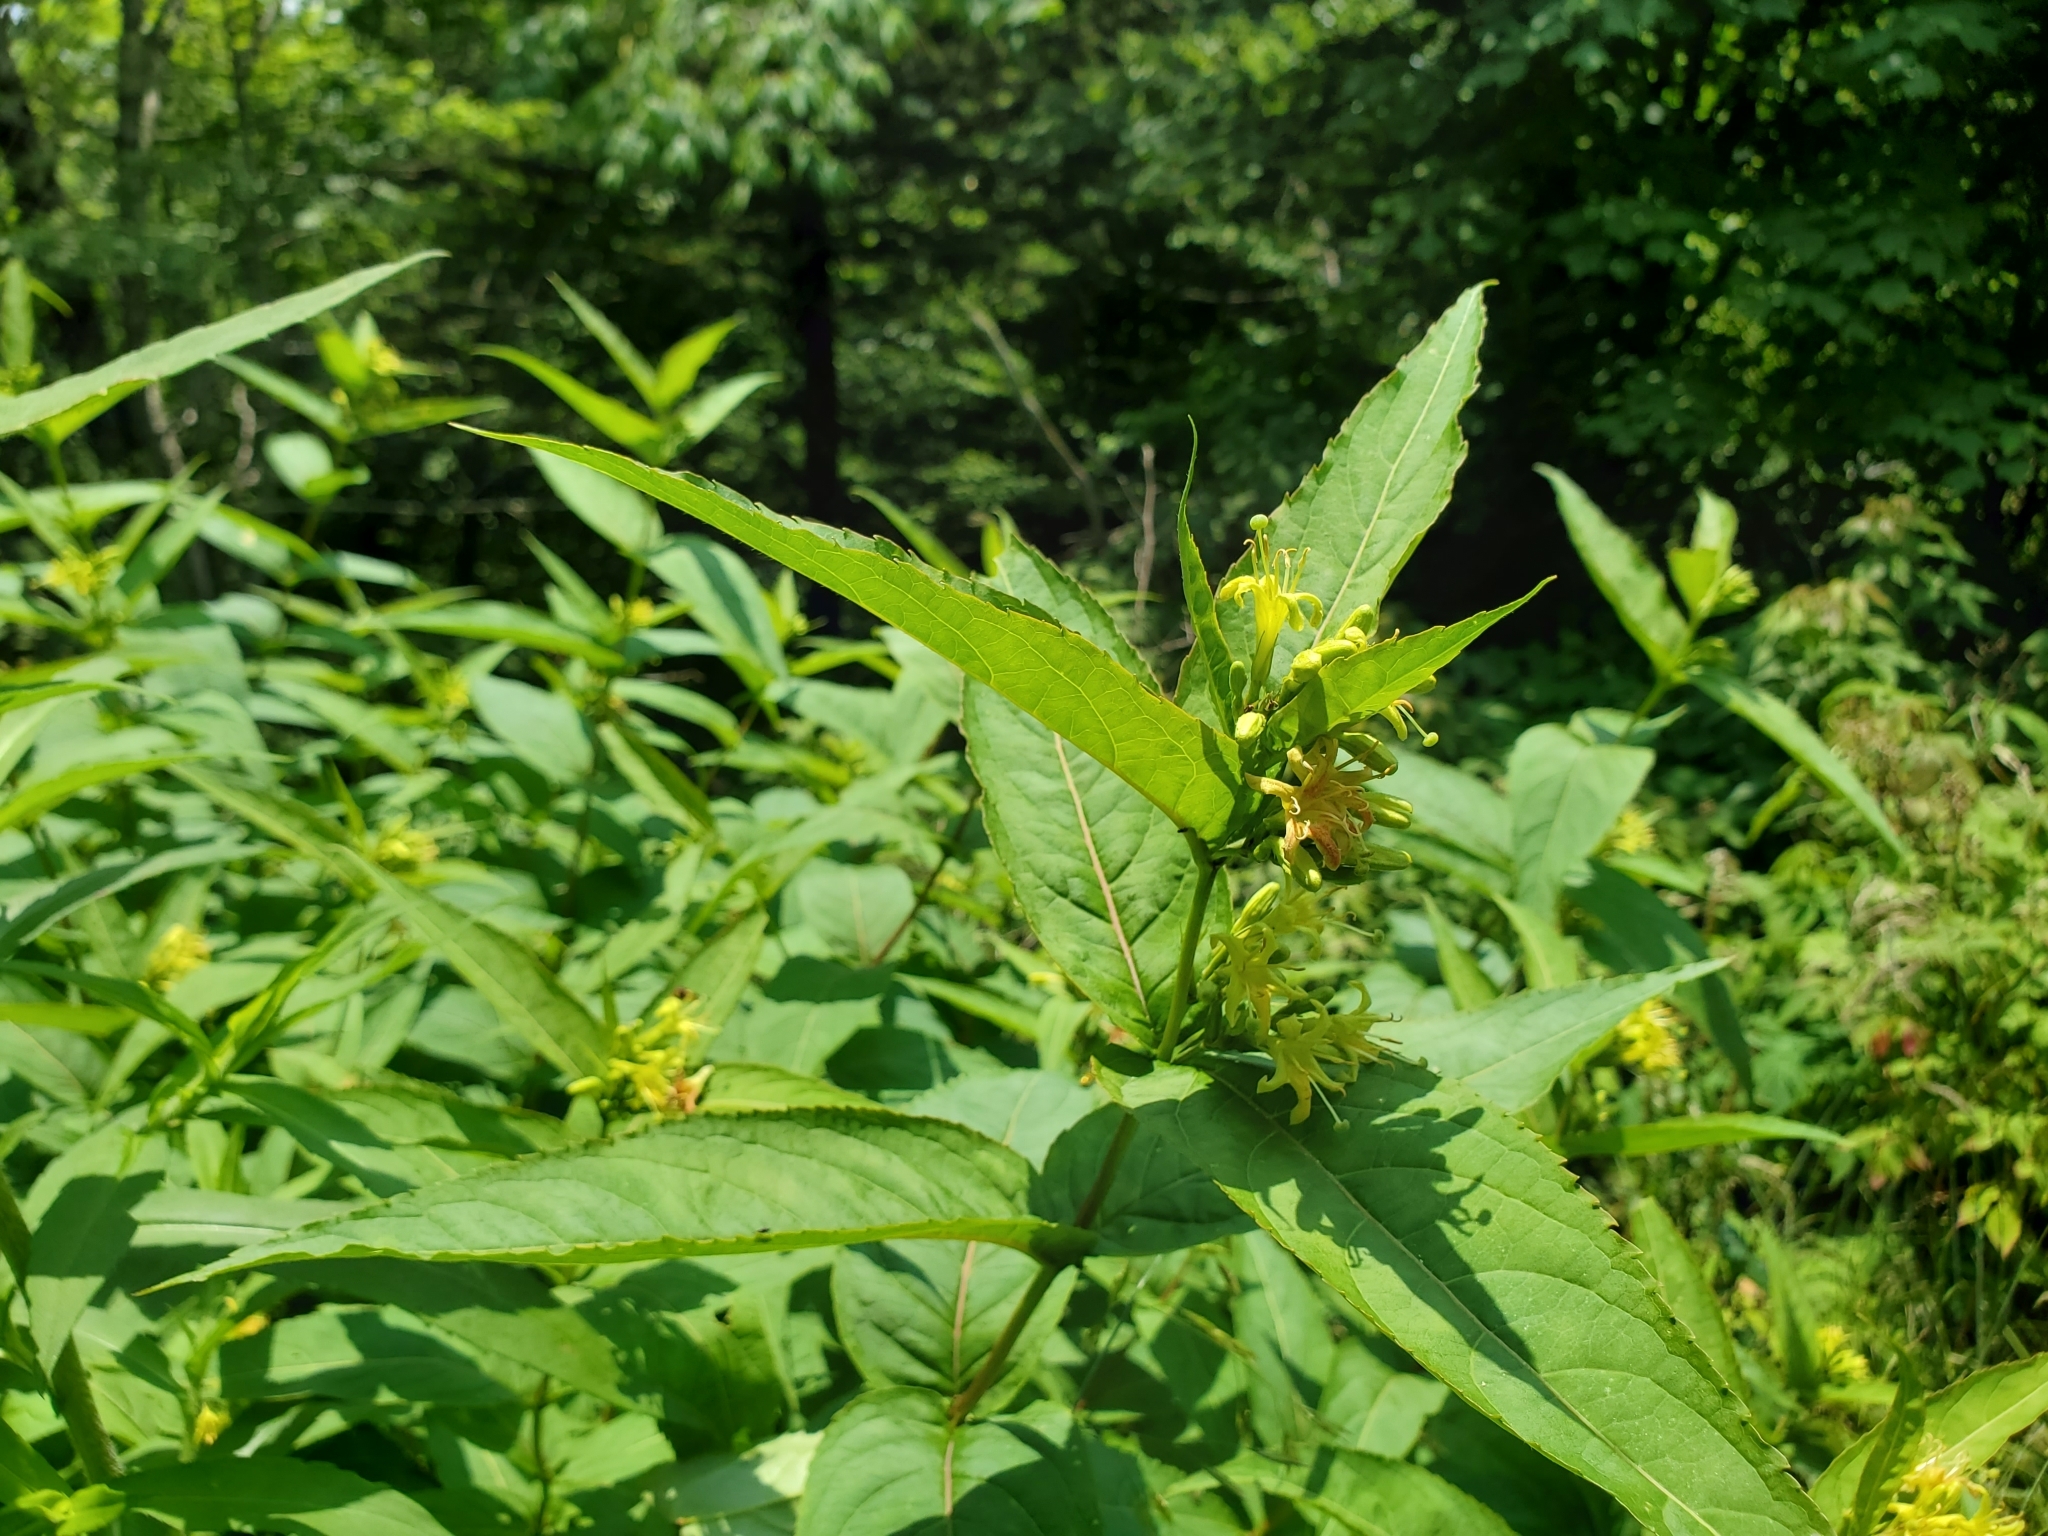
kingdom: Plantae
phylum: Tracheophyta
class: Magnoliopsida
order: Dipsacales
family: Caprifoliaceae
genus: Diervilla
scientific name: Diervilla sessilifolia
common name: Bush-honeysuckle
